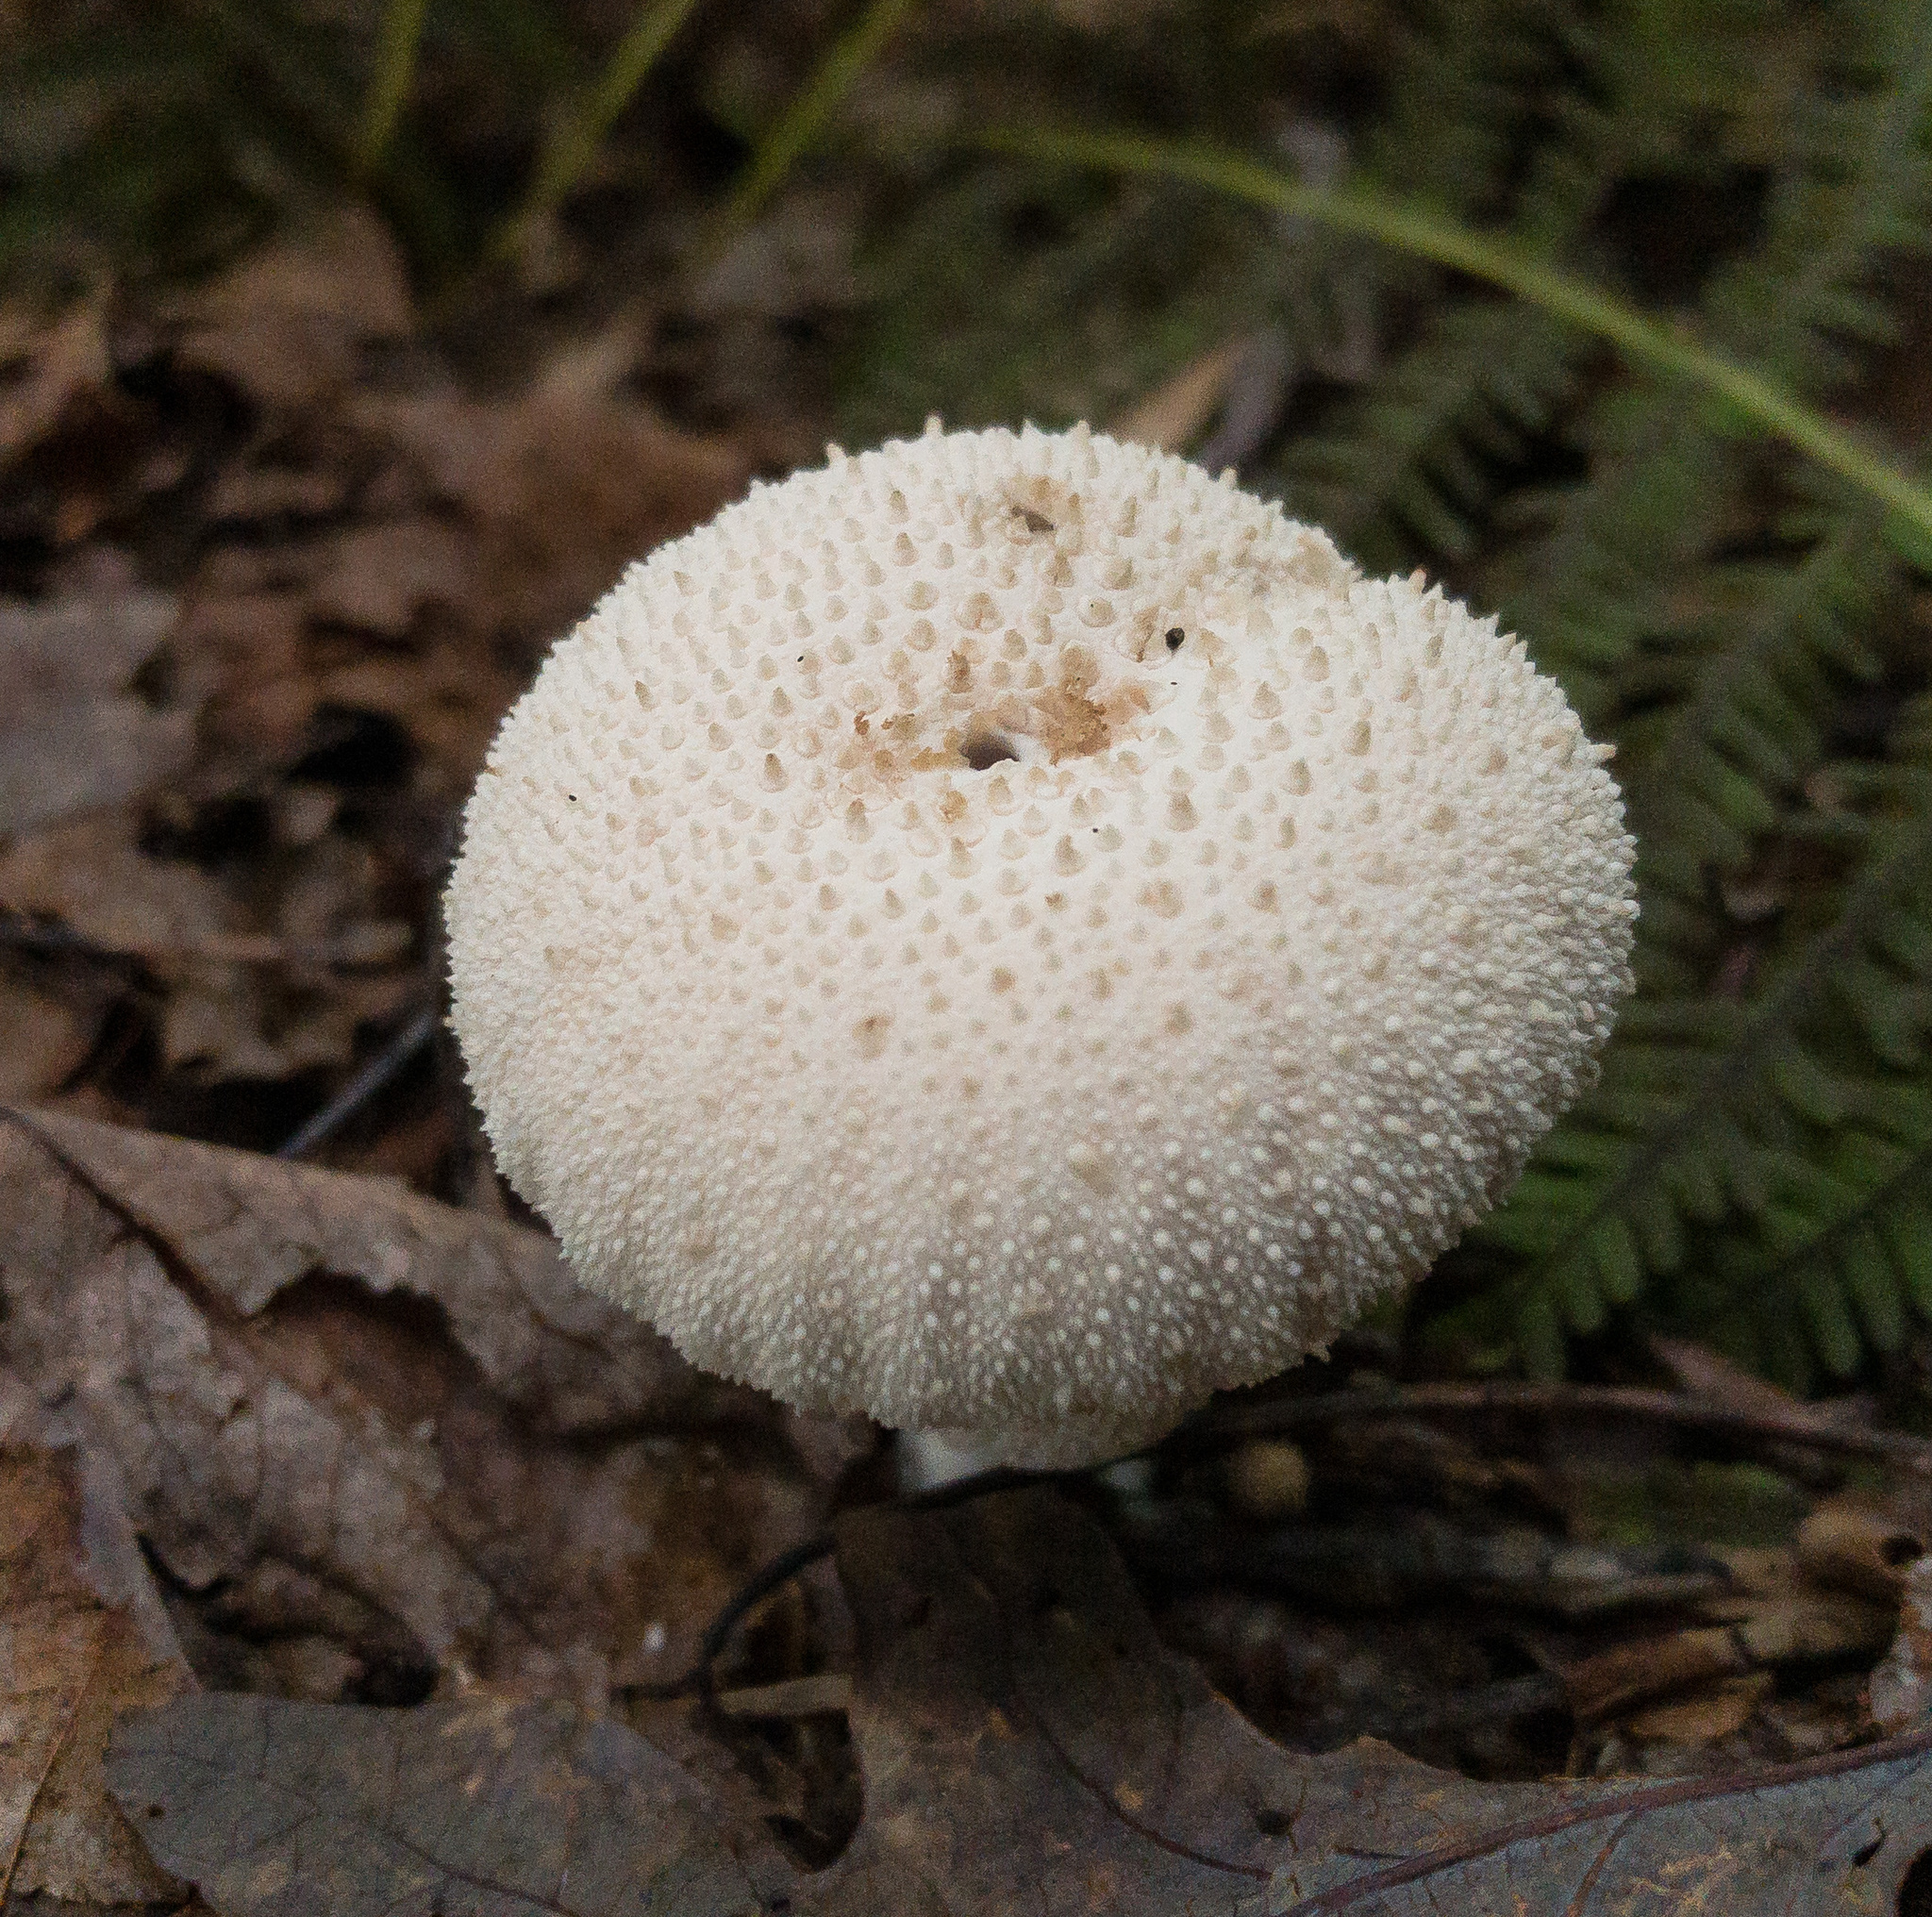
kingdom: Fungi
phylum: Basidiomycota
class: Agaricomycetes
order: Agaricales
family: Lycoperdaceae
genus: Lycoperdon
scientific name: Lycoperdon perlatum
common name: Common puffball
